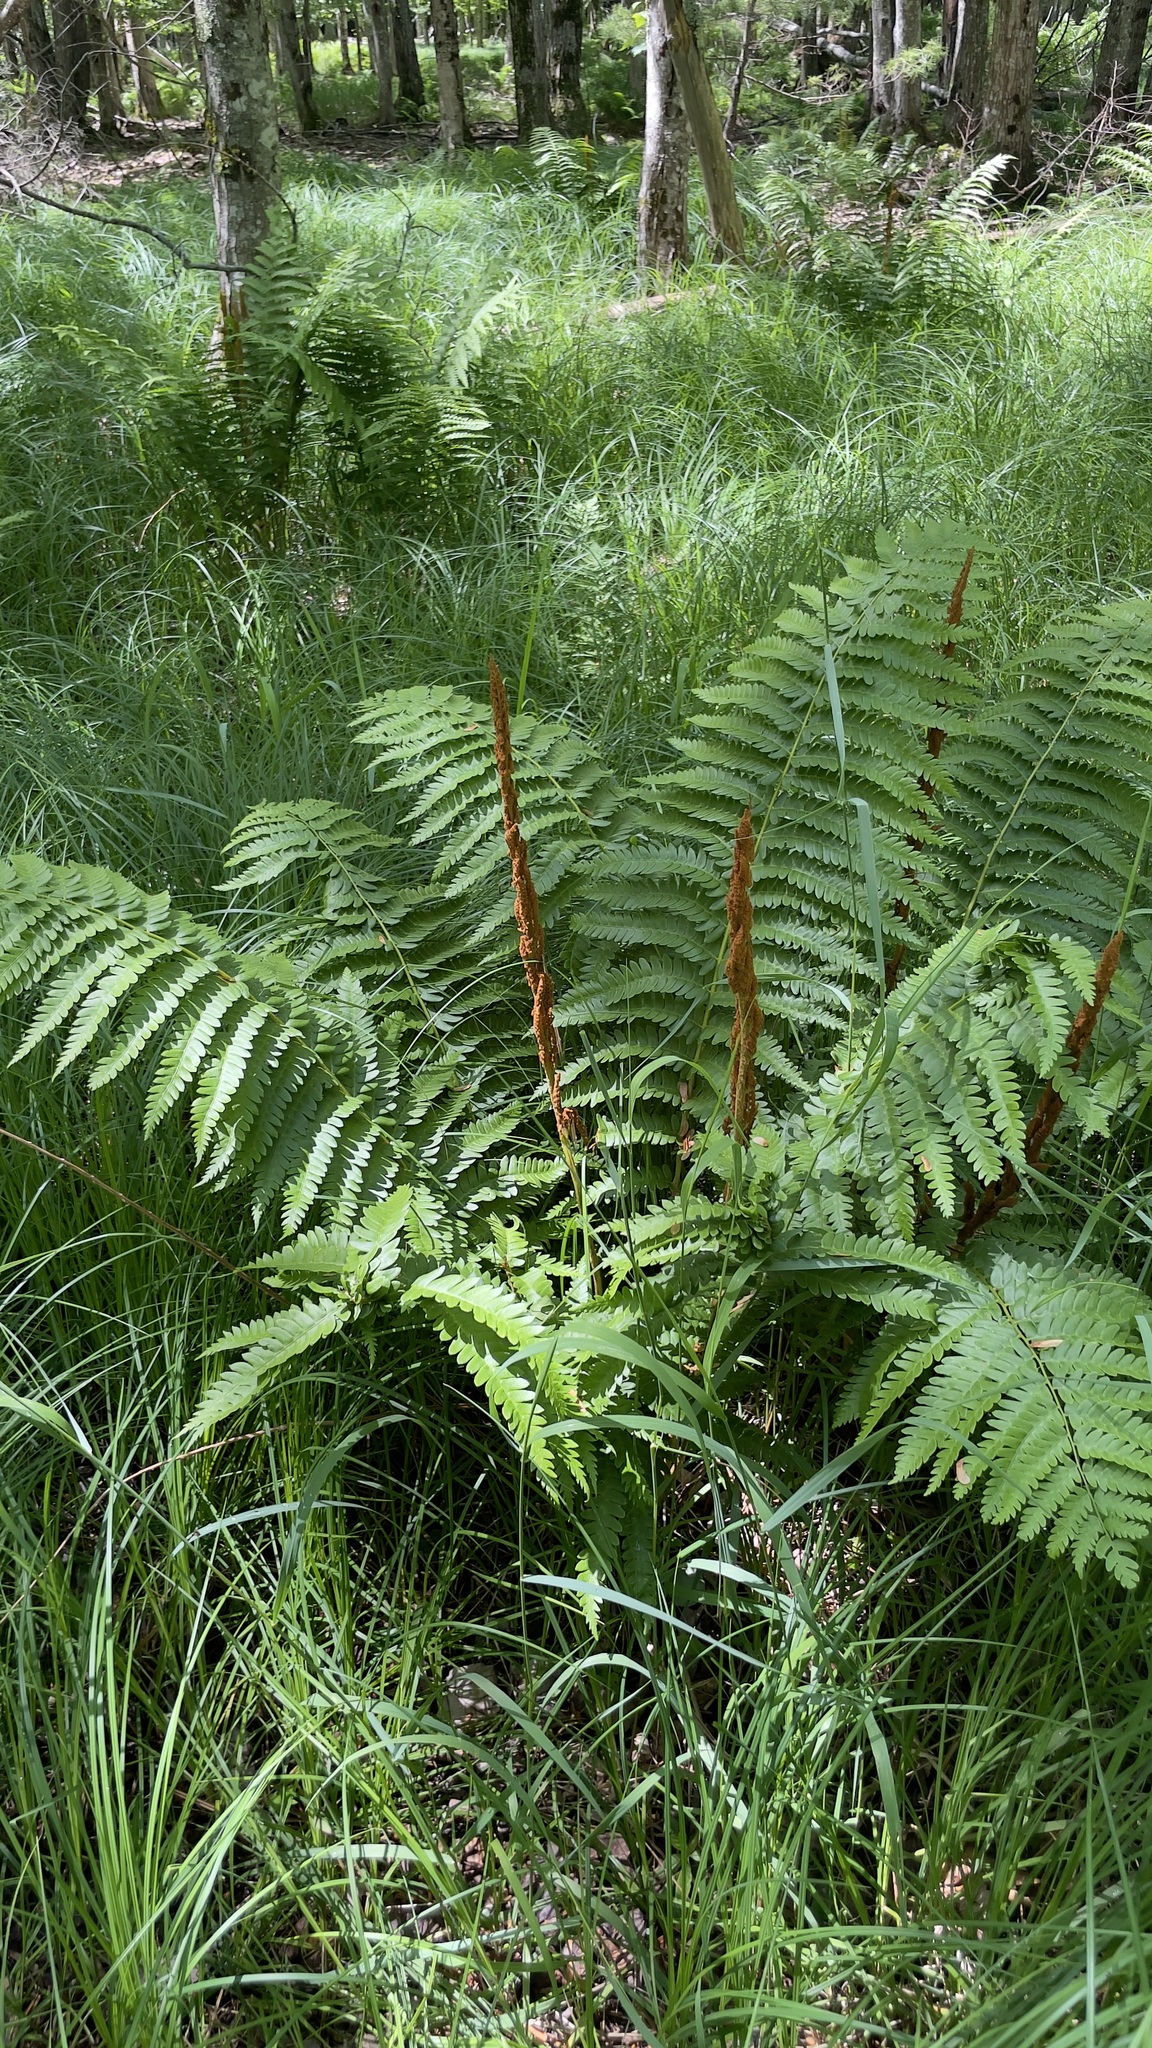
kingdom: Plantae
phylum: Tracheophyta
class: Polypodiopsida
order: Osmundales
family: Osmundaceae
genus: Osmundastrum
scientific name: Osmundastrum cinnamomeum
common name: Cinnamon fern
